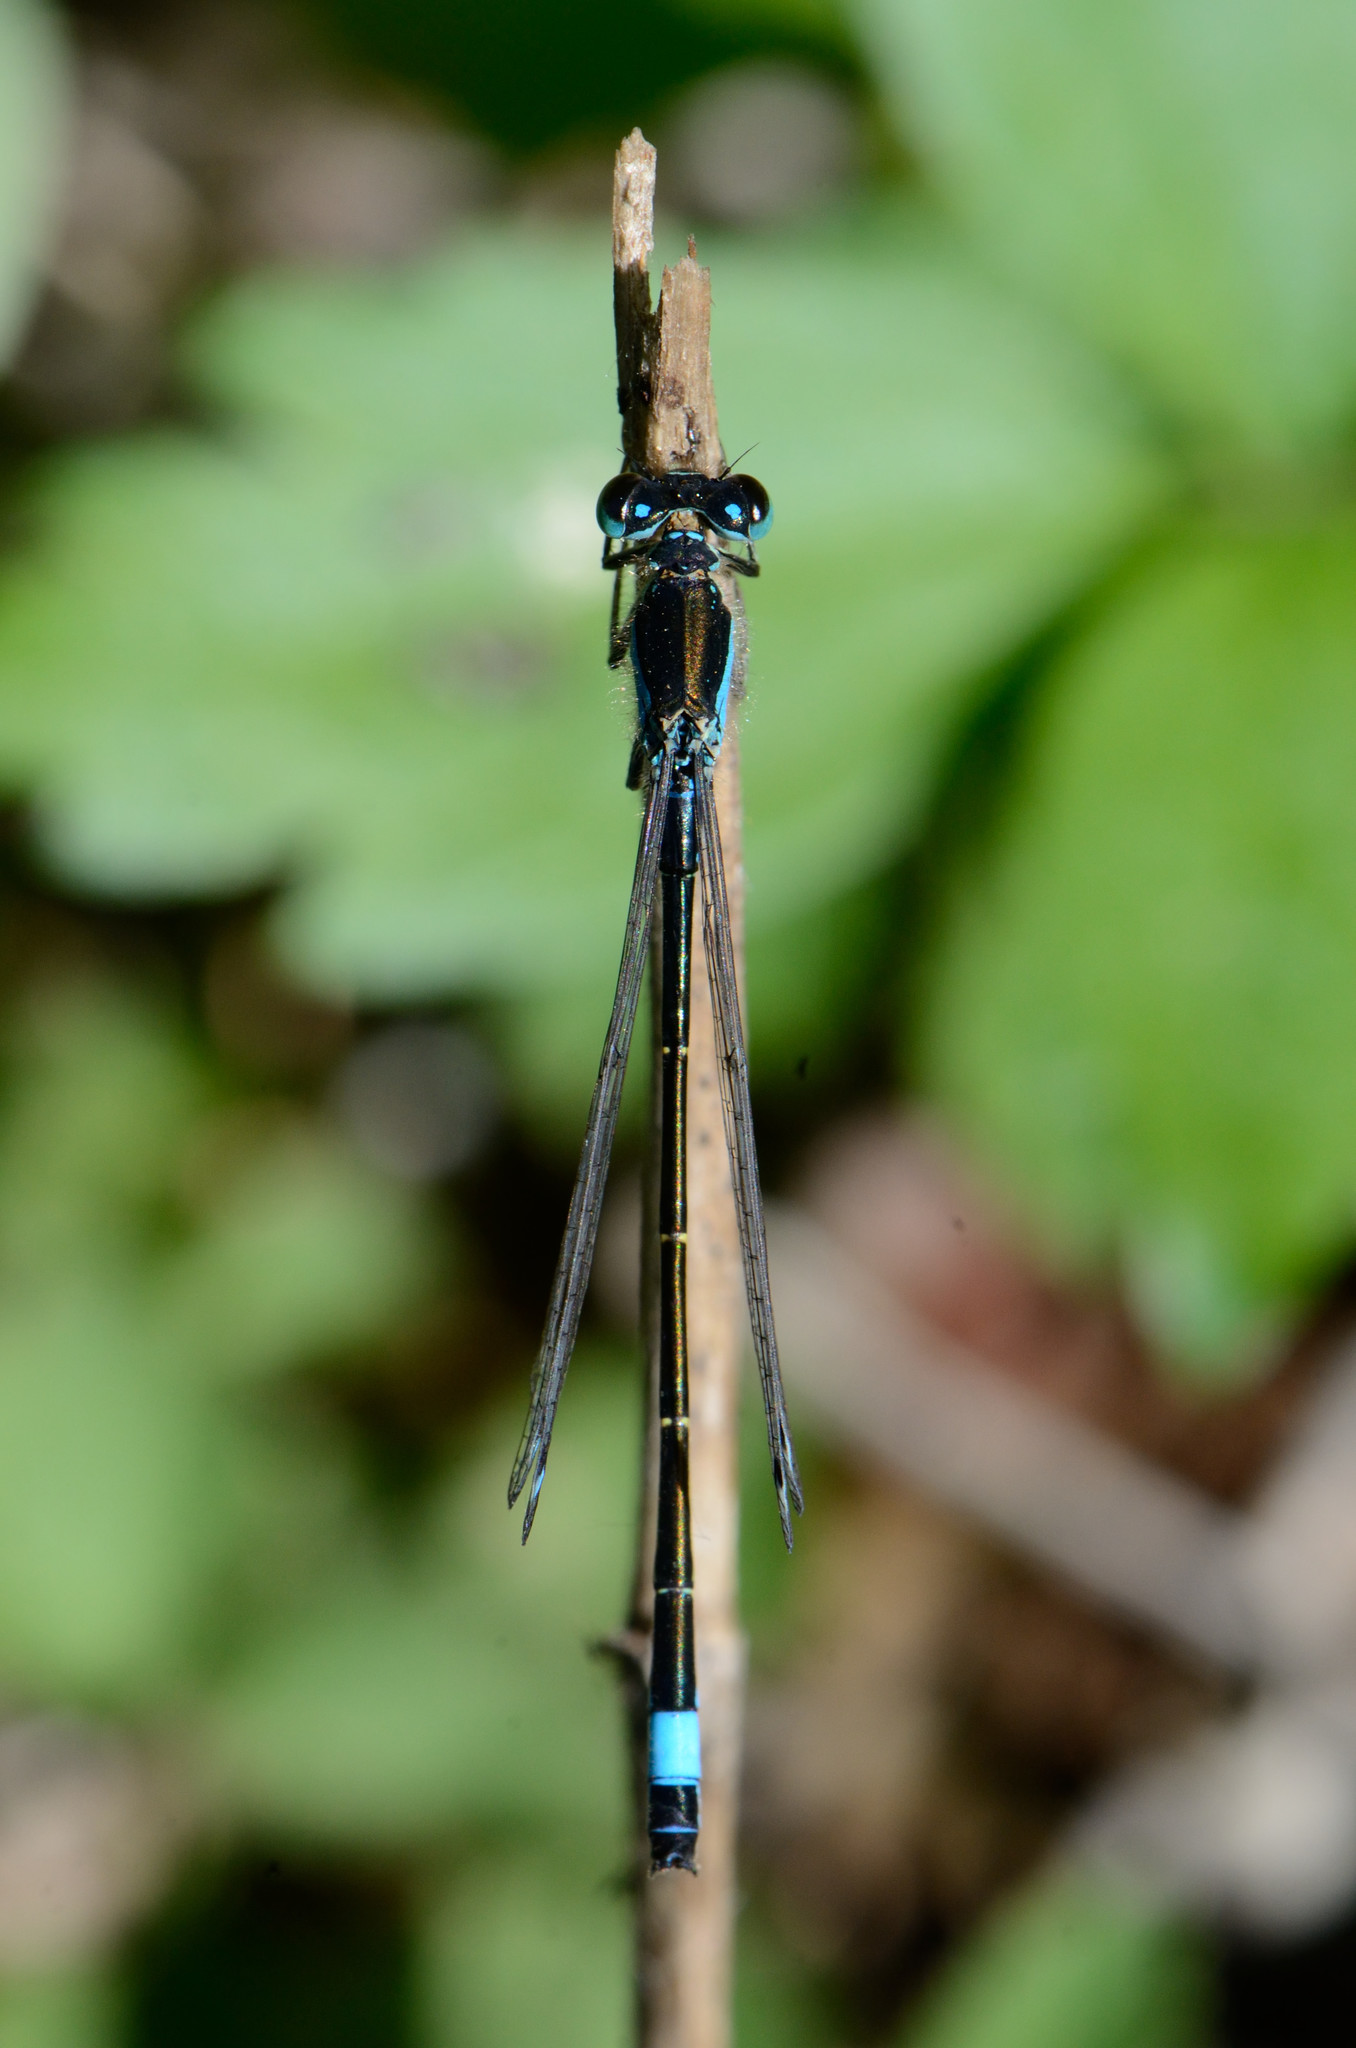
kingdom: Animalia
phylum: Arthropoda
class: Insecta
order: Odonata
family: Coenagrionidae
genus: Ischnura
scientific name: Ischnura elegans
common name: Blue-tailed damselfly
